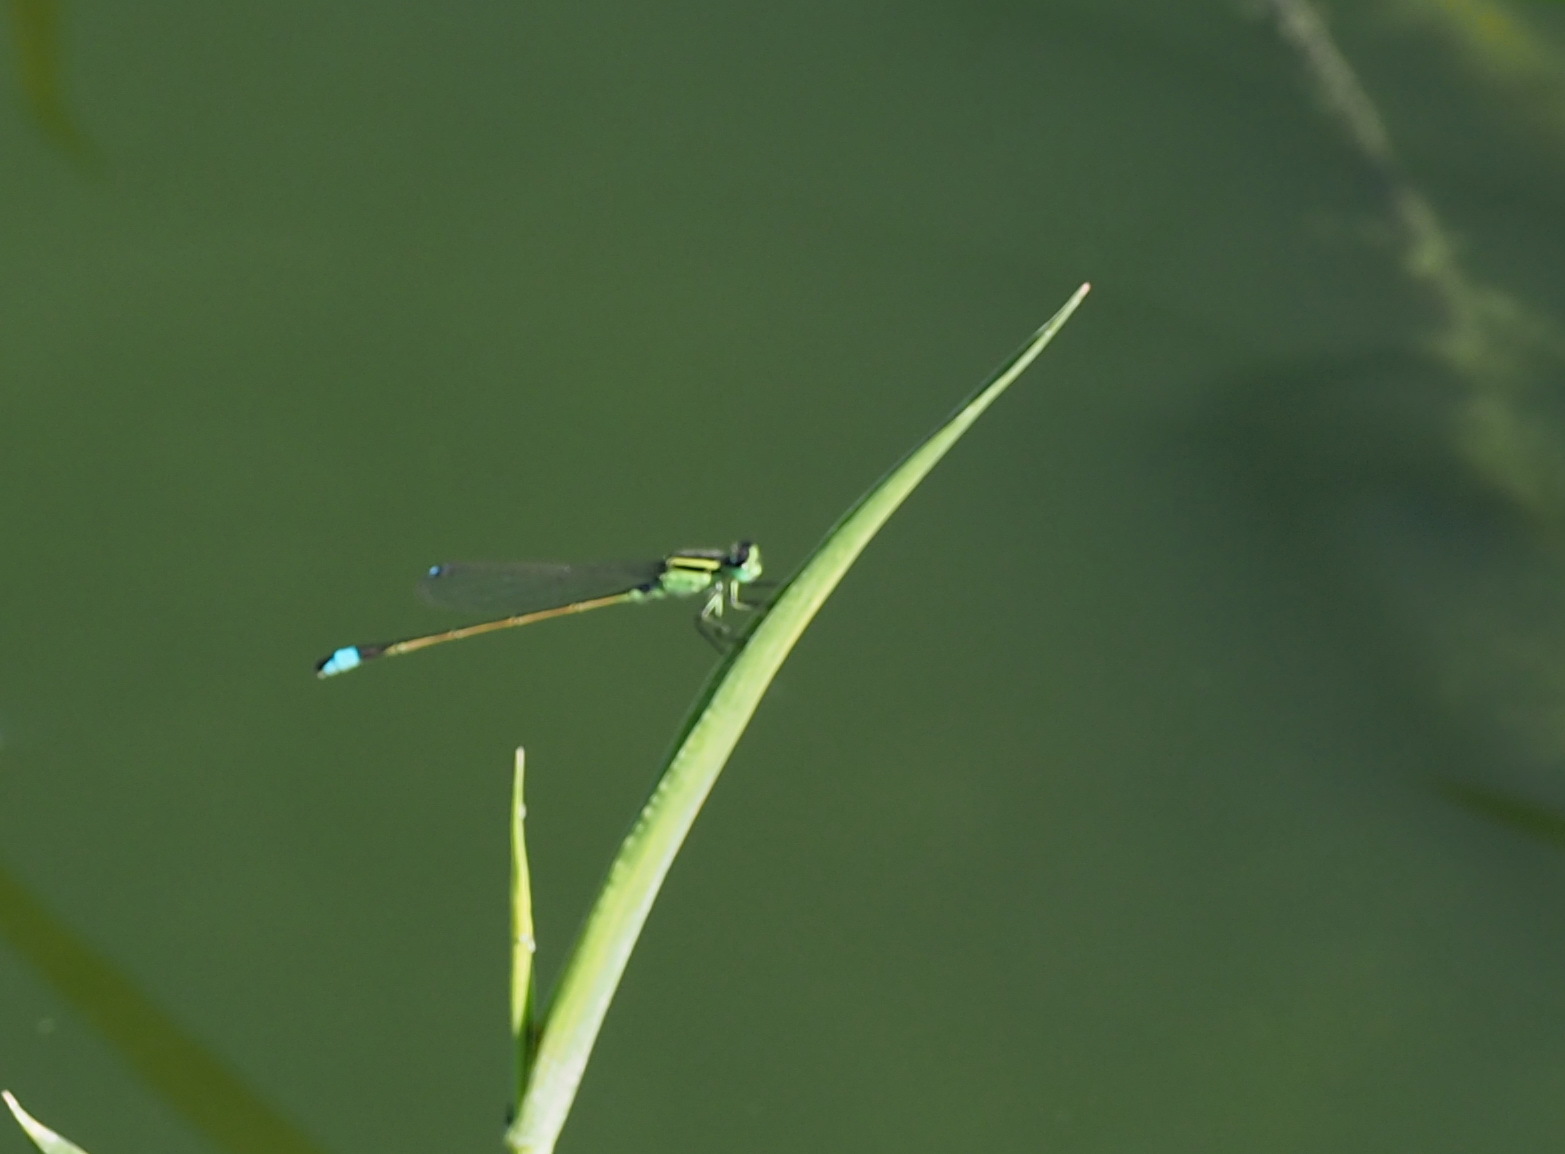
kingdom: Animalia
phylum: Arthropoda
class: Insecta
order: Odonata
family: Coenagrionidae
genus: Ischnura
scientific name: Ischnura senegalensis
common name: Tropical bluetail
